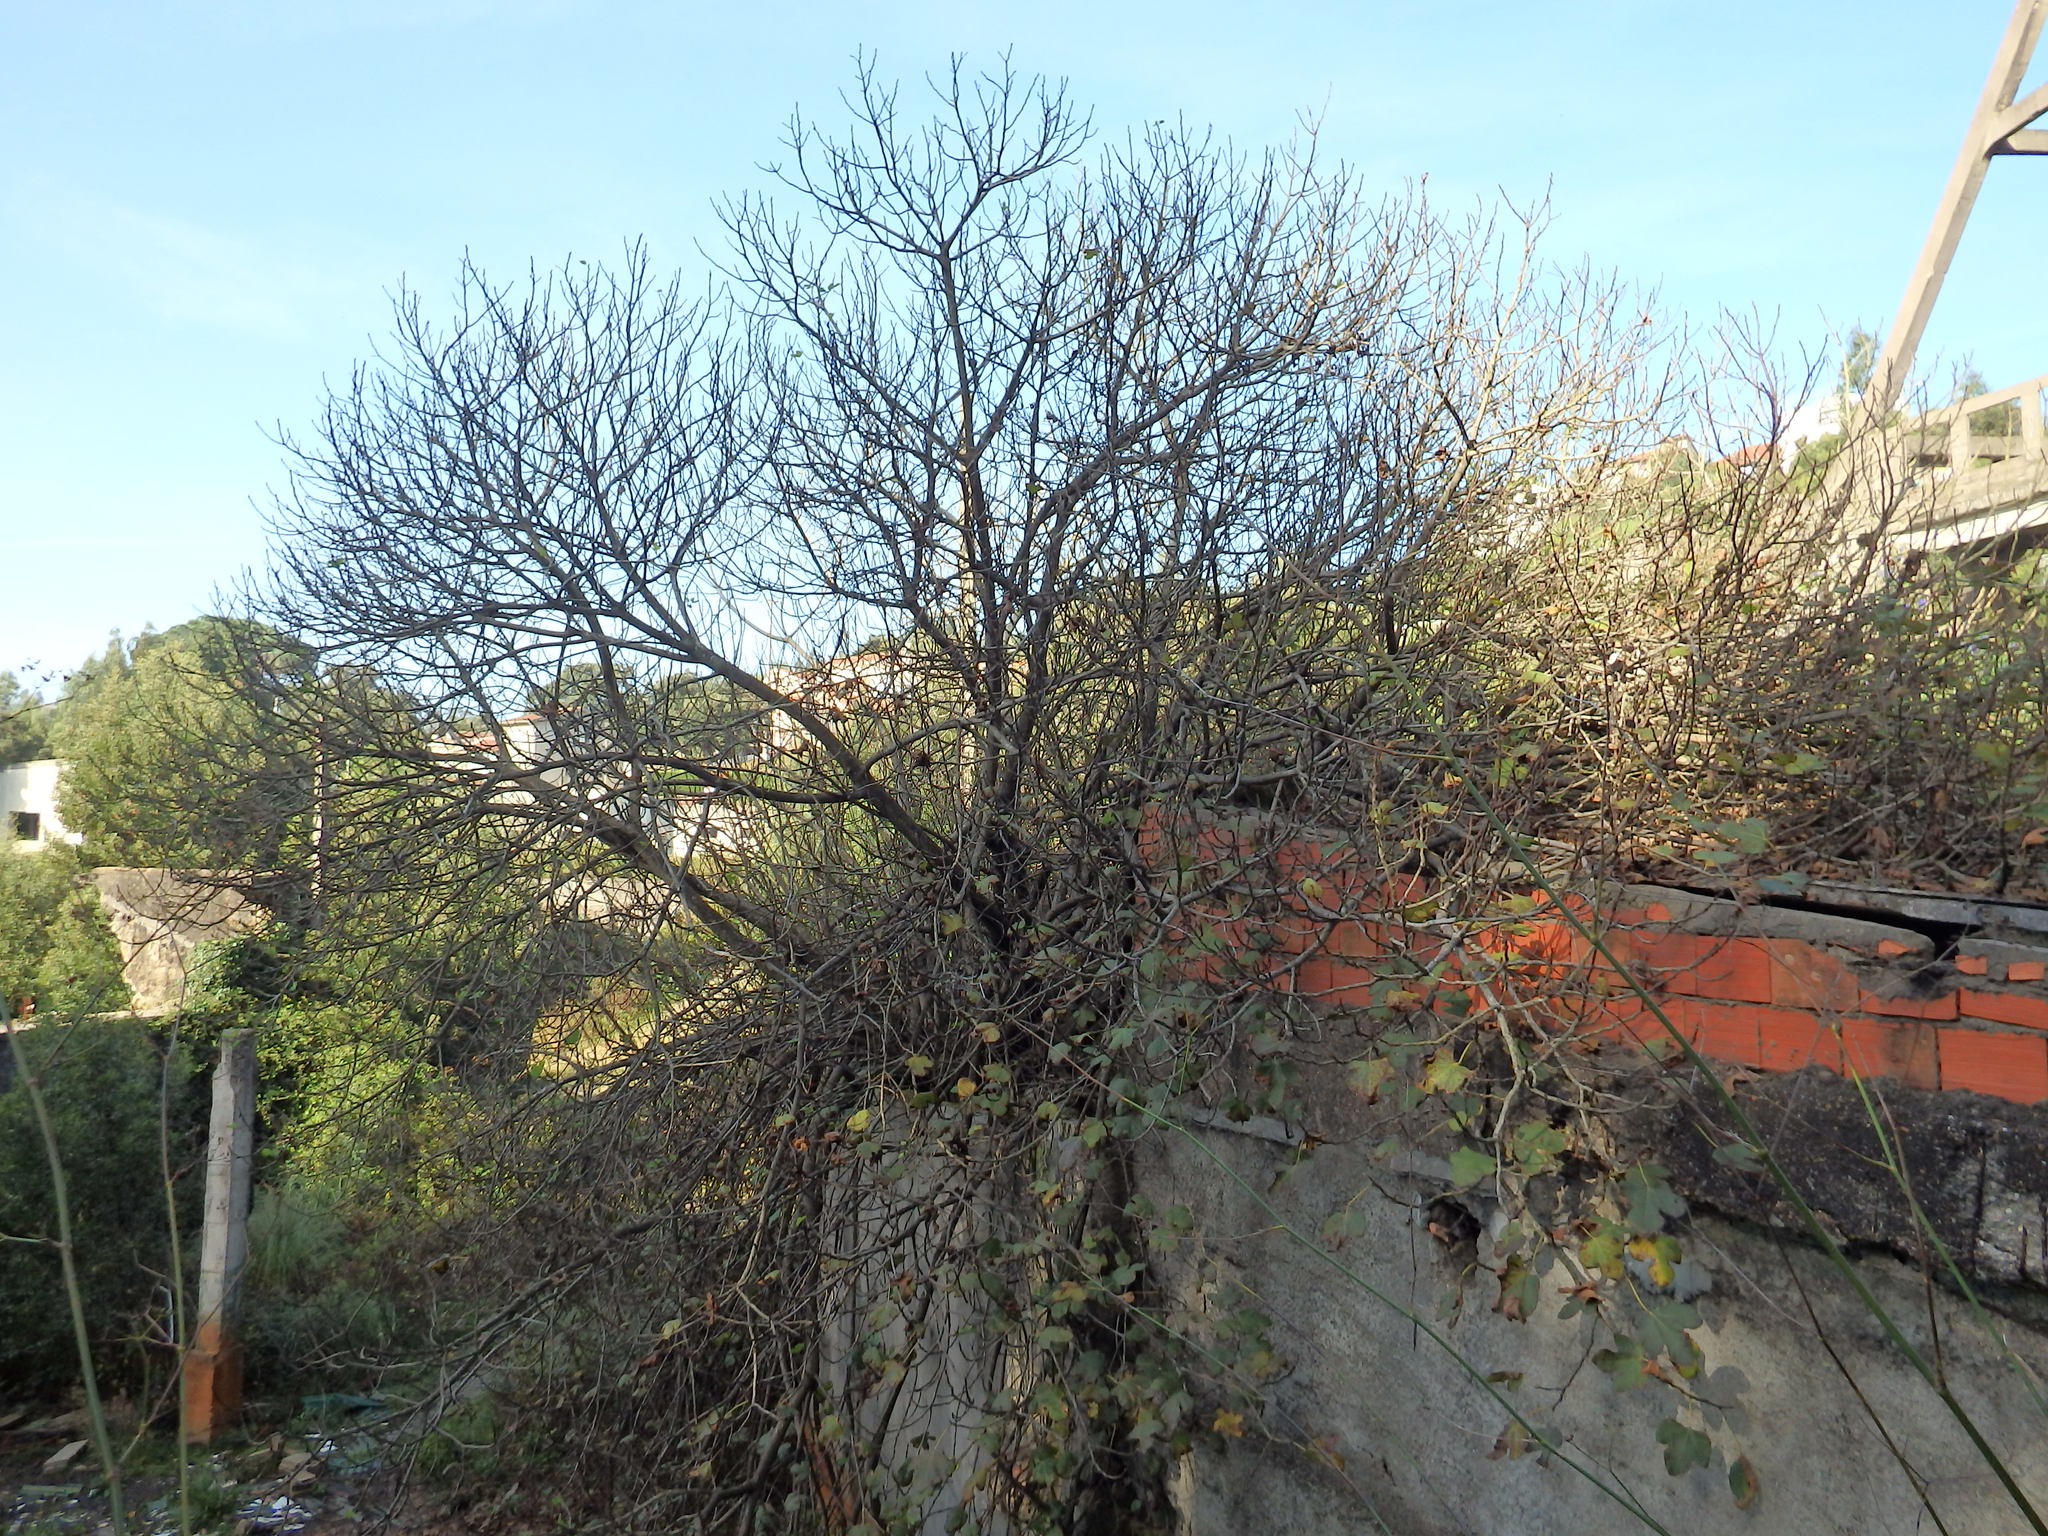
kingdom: Plantae
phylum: Tracheophyta
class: Magnoliopsida
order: Rosales
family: Moraceae
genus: Ficus
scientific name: Ficus carica
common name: Fig
